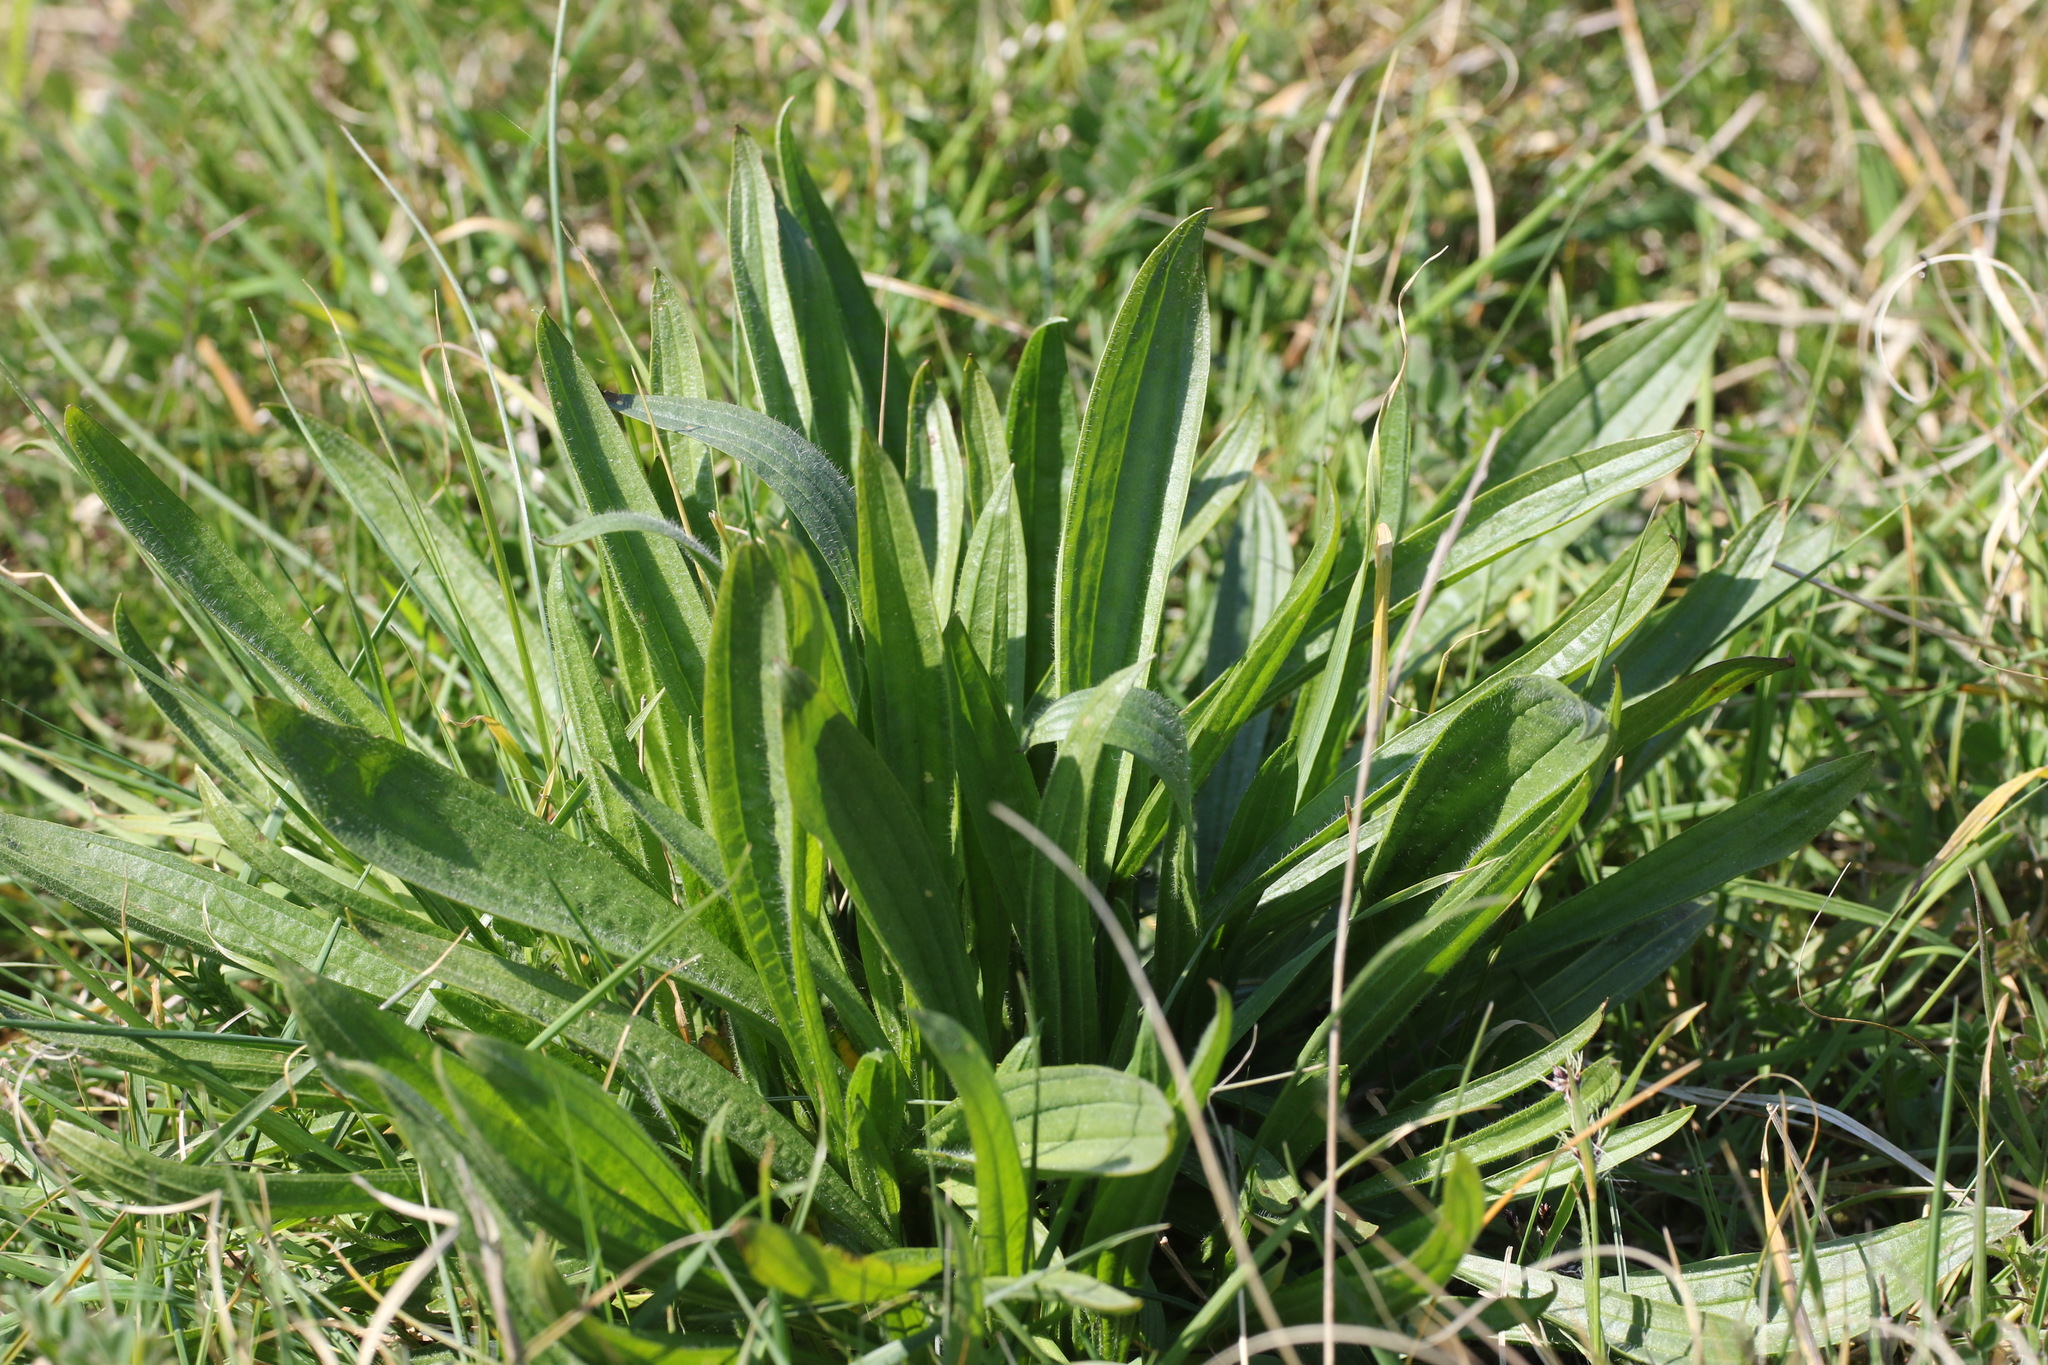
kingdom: Plantae
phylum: Tracheophyta
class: Magnoliopsida
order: Lamiales
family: Plantaginaceae
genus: Plantago
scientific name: Plantago lanceolata
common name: Ribwort plantain
